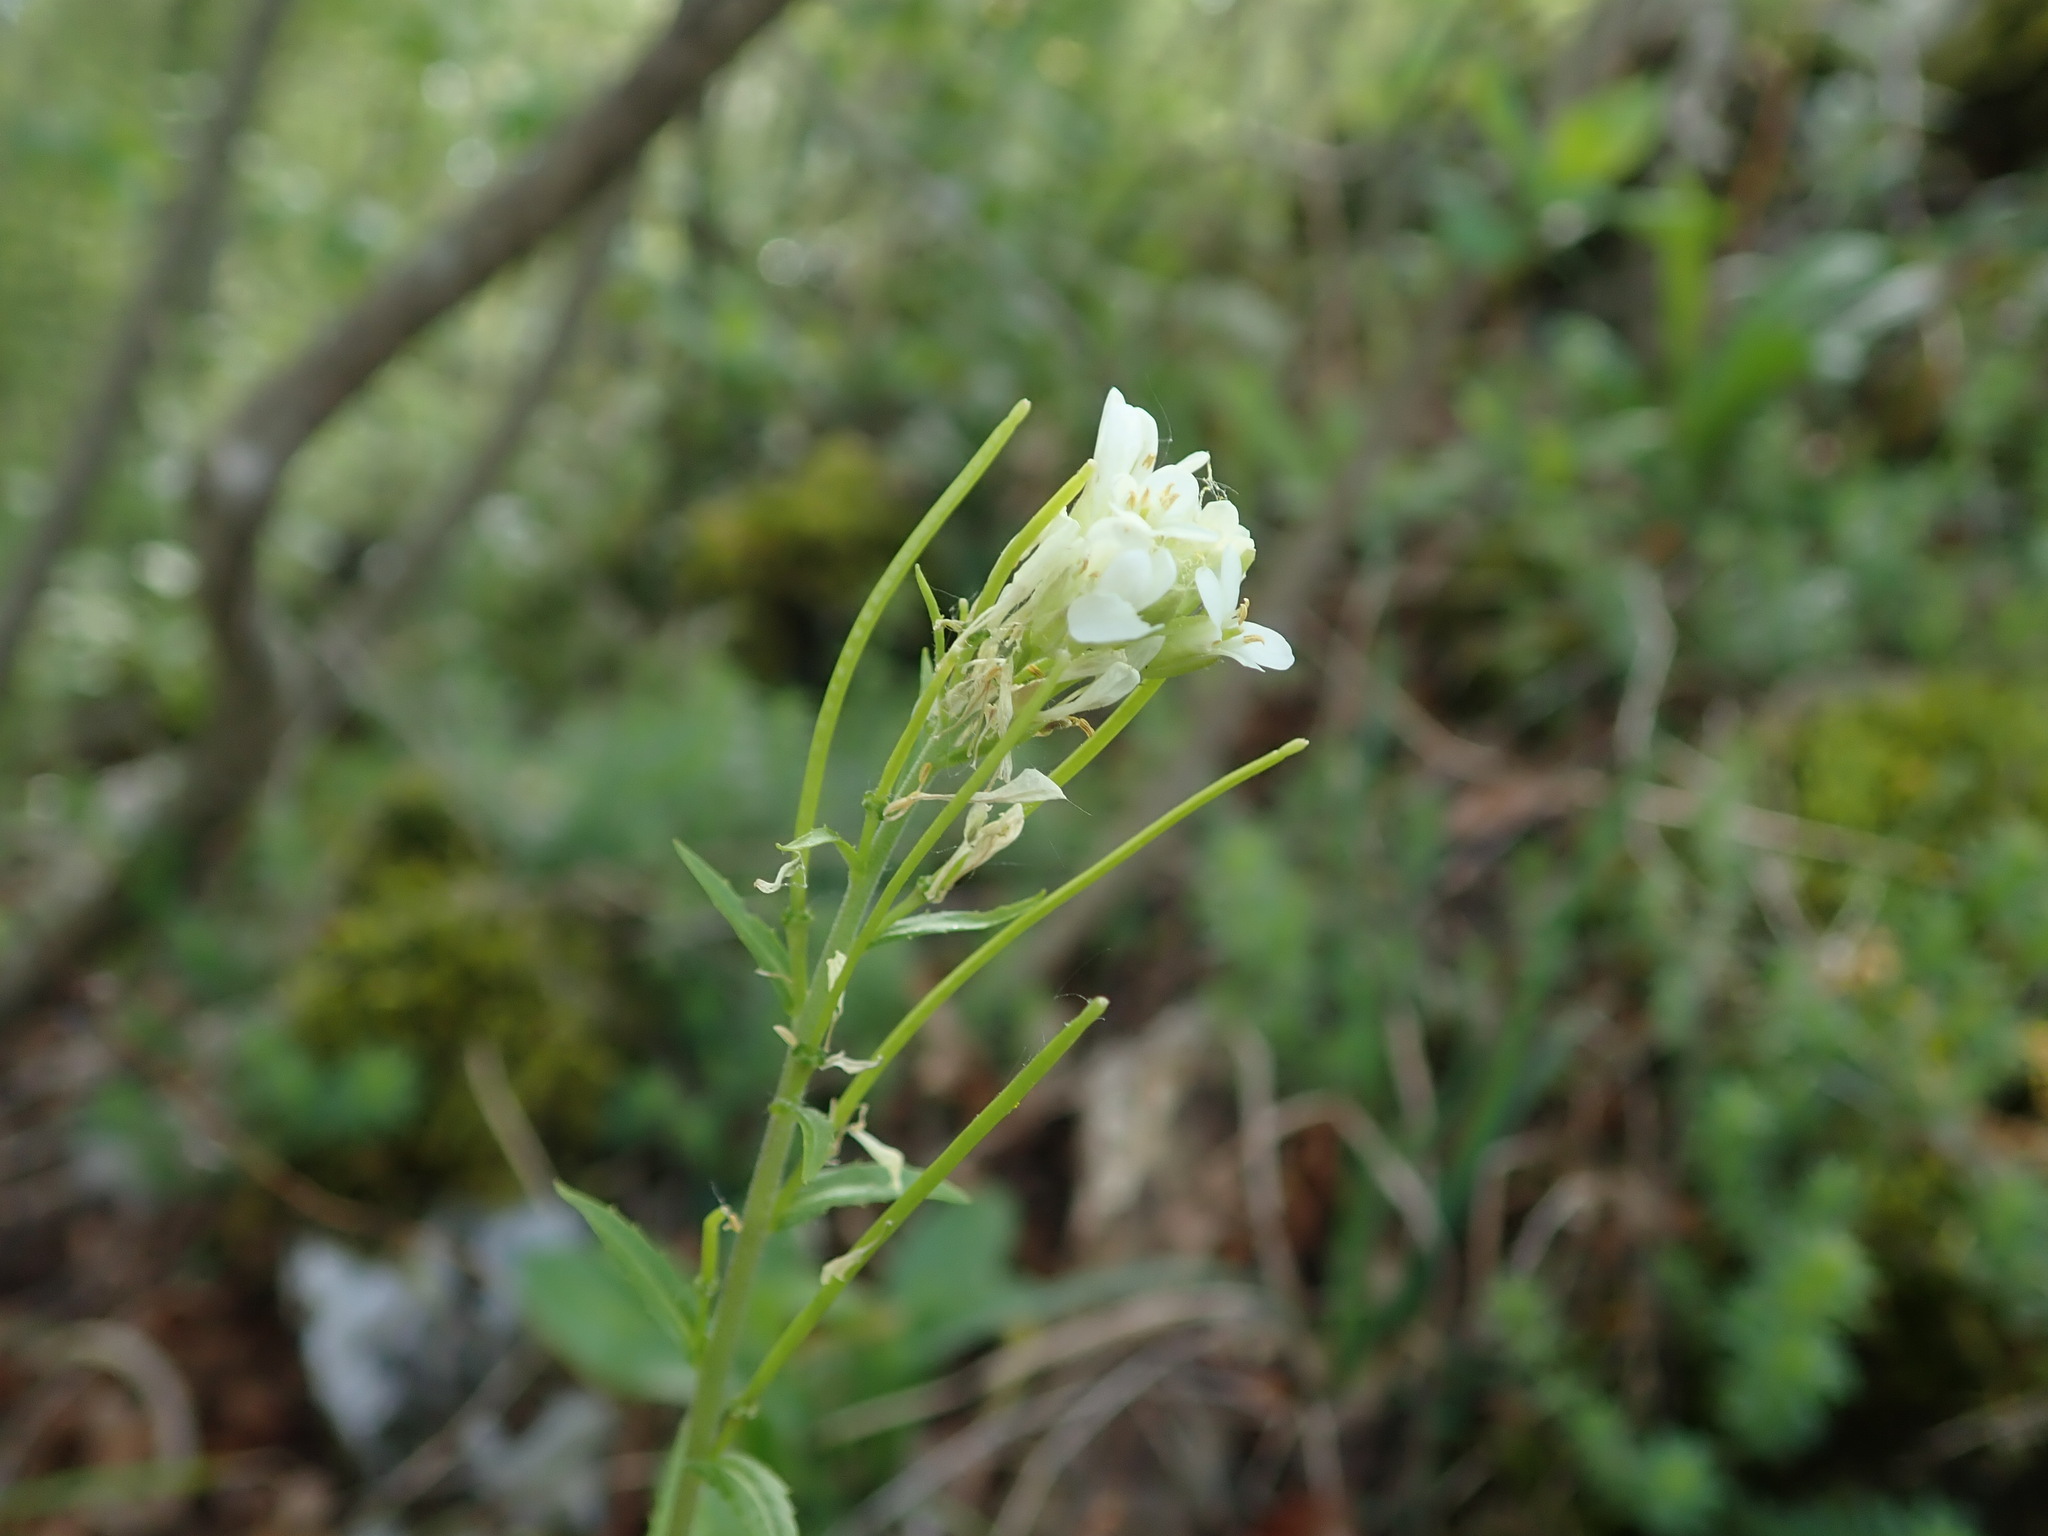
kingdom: Plantae
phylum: Tracheophyta
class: Magnoliopsida
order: Brassicales
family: Brassicaceae
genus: Pseudoturritis
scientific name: Pseudoturritis turrita
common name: Tower cress
